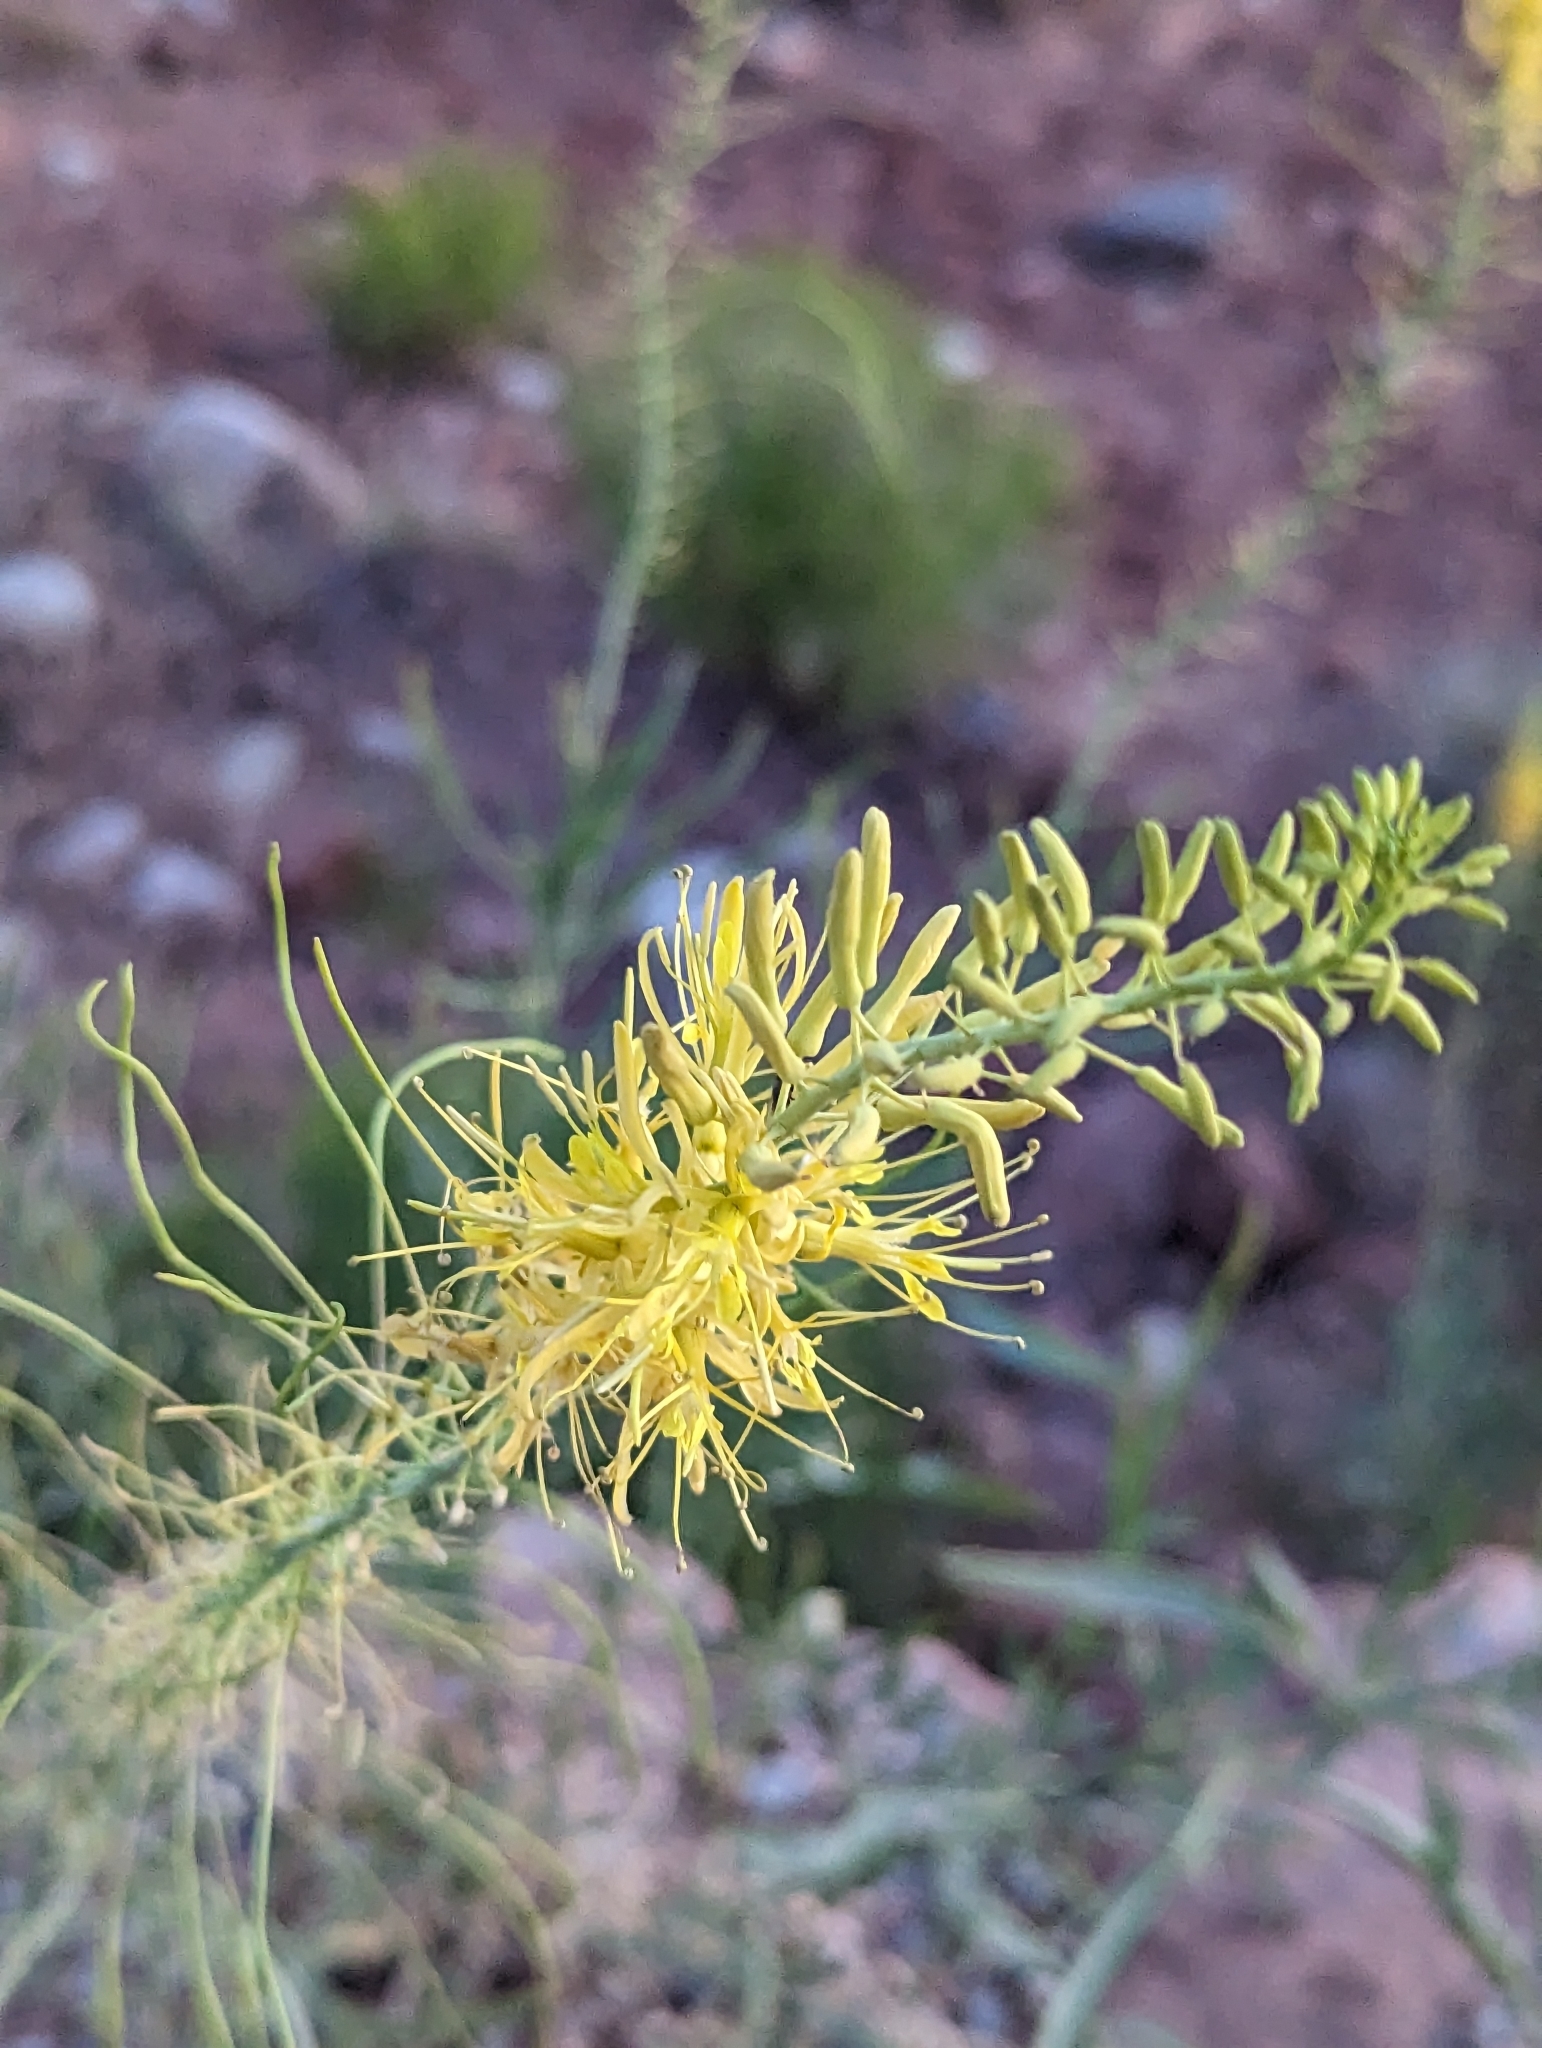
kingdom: Plantae
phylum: Tracheophyta
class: Magnoliopsida
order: Brassicales
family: Brassicaceae
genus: Stanleya
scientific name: Stanleya pinnata
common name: Prince's-plume
